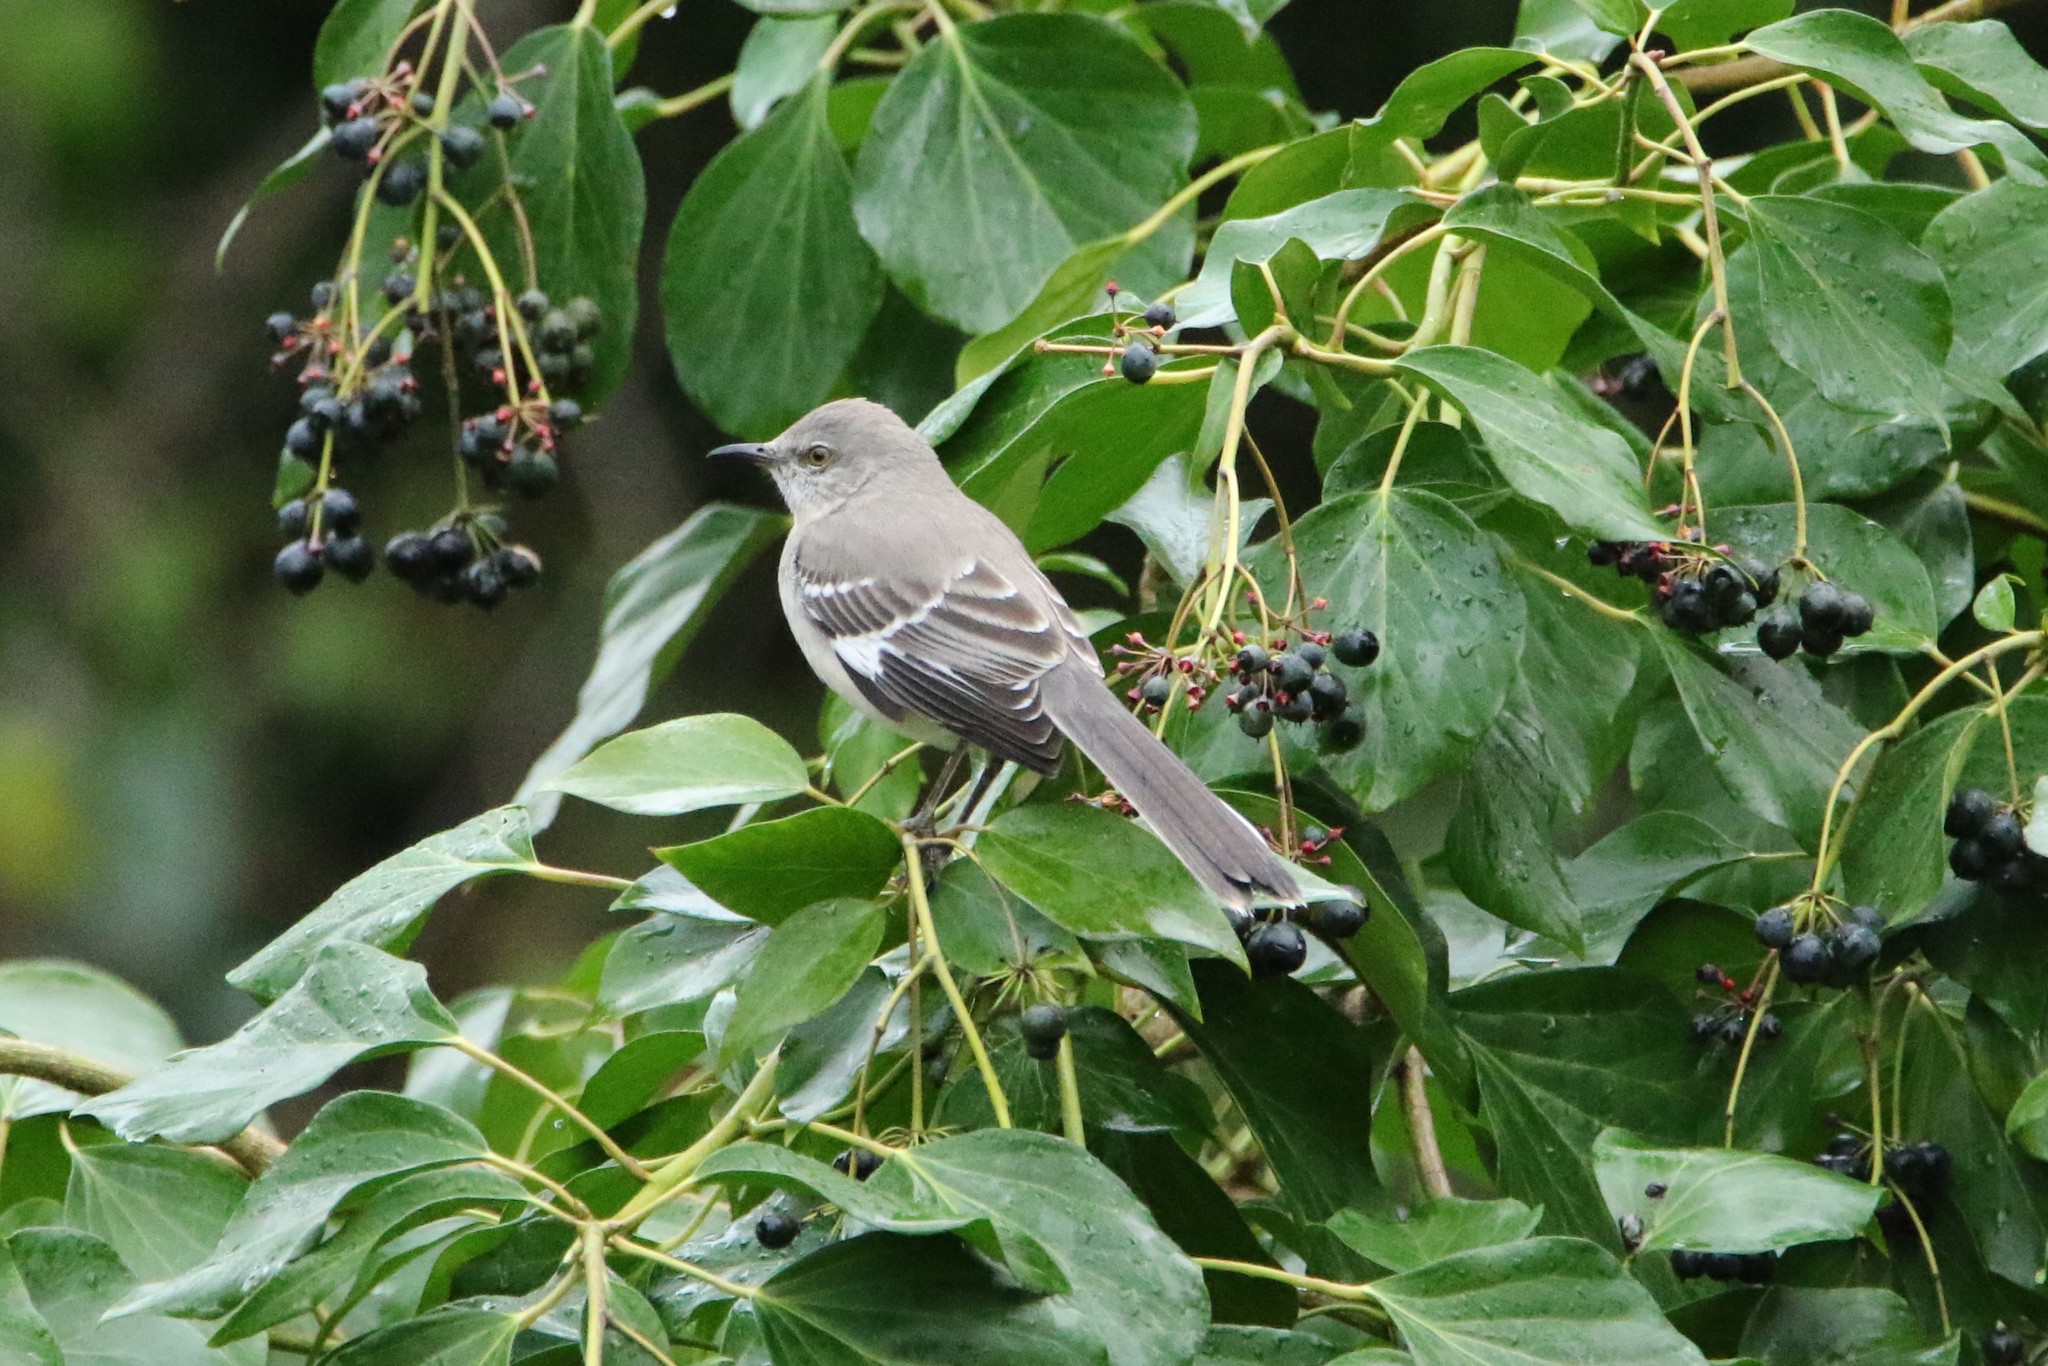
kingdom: Animalia
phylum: Chordata
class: Aves
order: Passeriformes
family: Mimidae
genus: Mimus
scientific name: Mimus polyglottos
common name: Northern mockingbird
